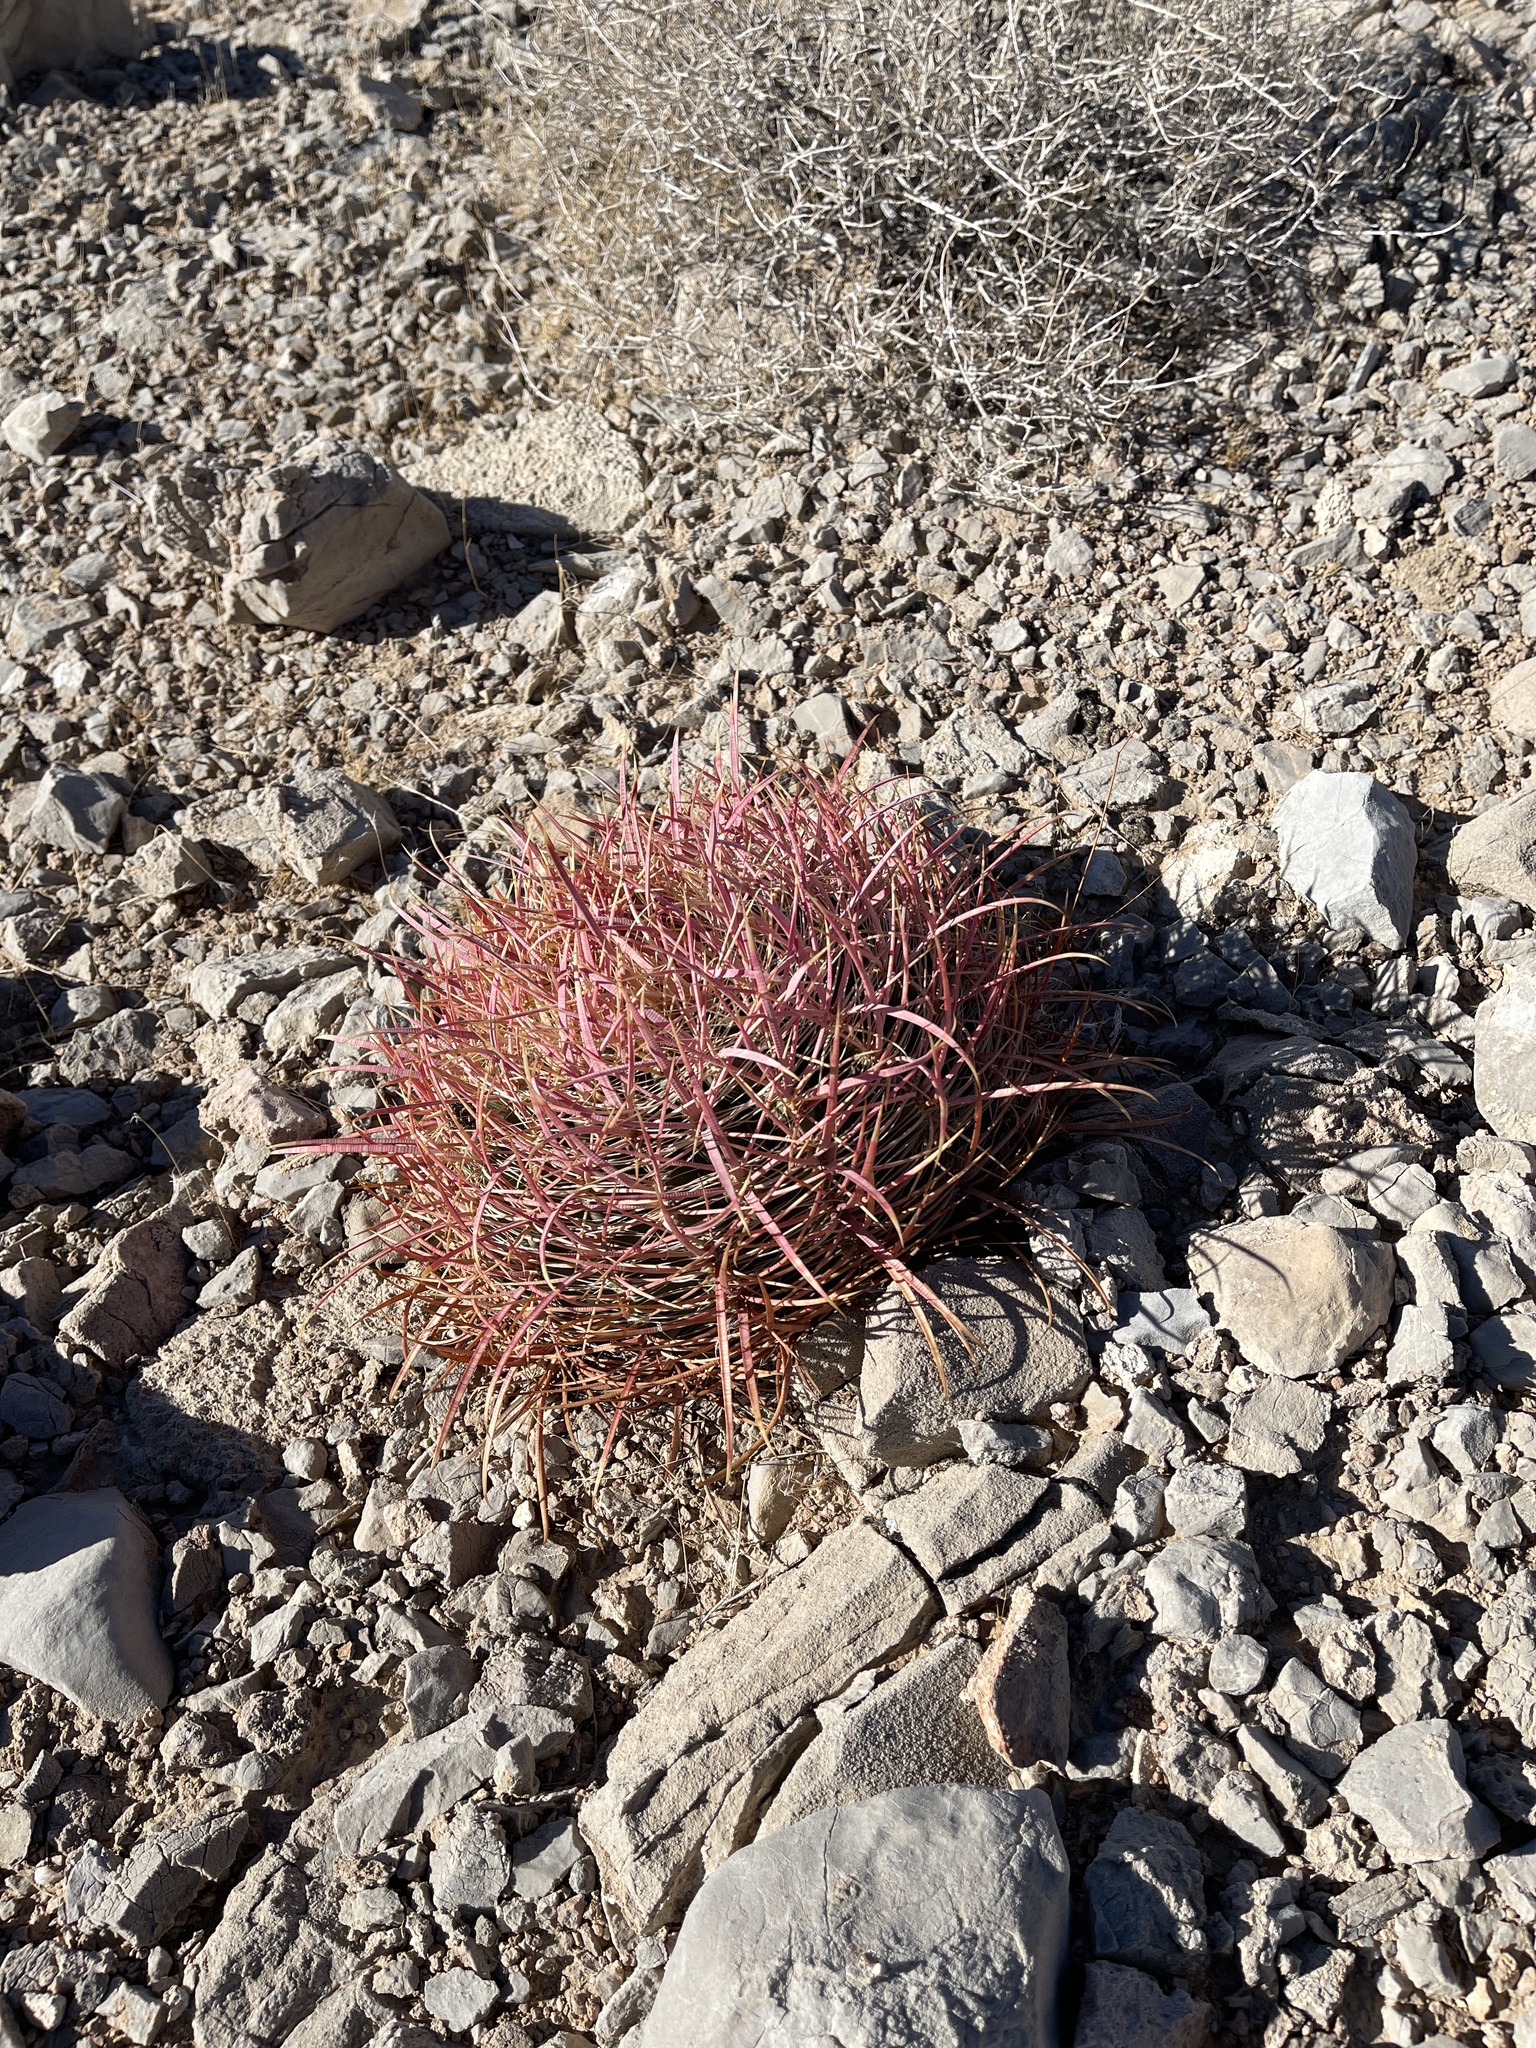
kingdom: Plantae
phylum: Tracheophyta
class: Magnoliopsida
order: Caryophyllales
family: Cactaceae
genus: Ferocactus
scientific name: Ferocactus cylindraceus
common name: California barrel cactus
